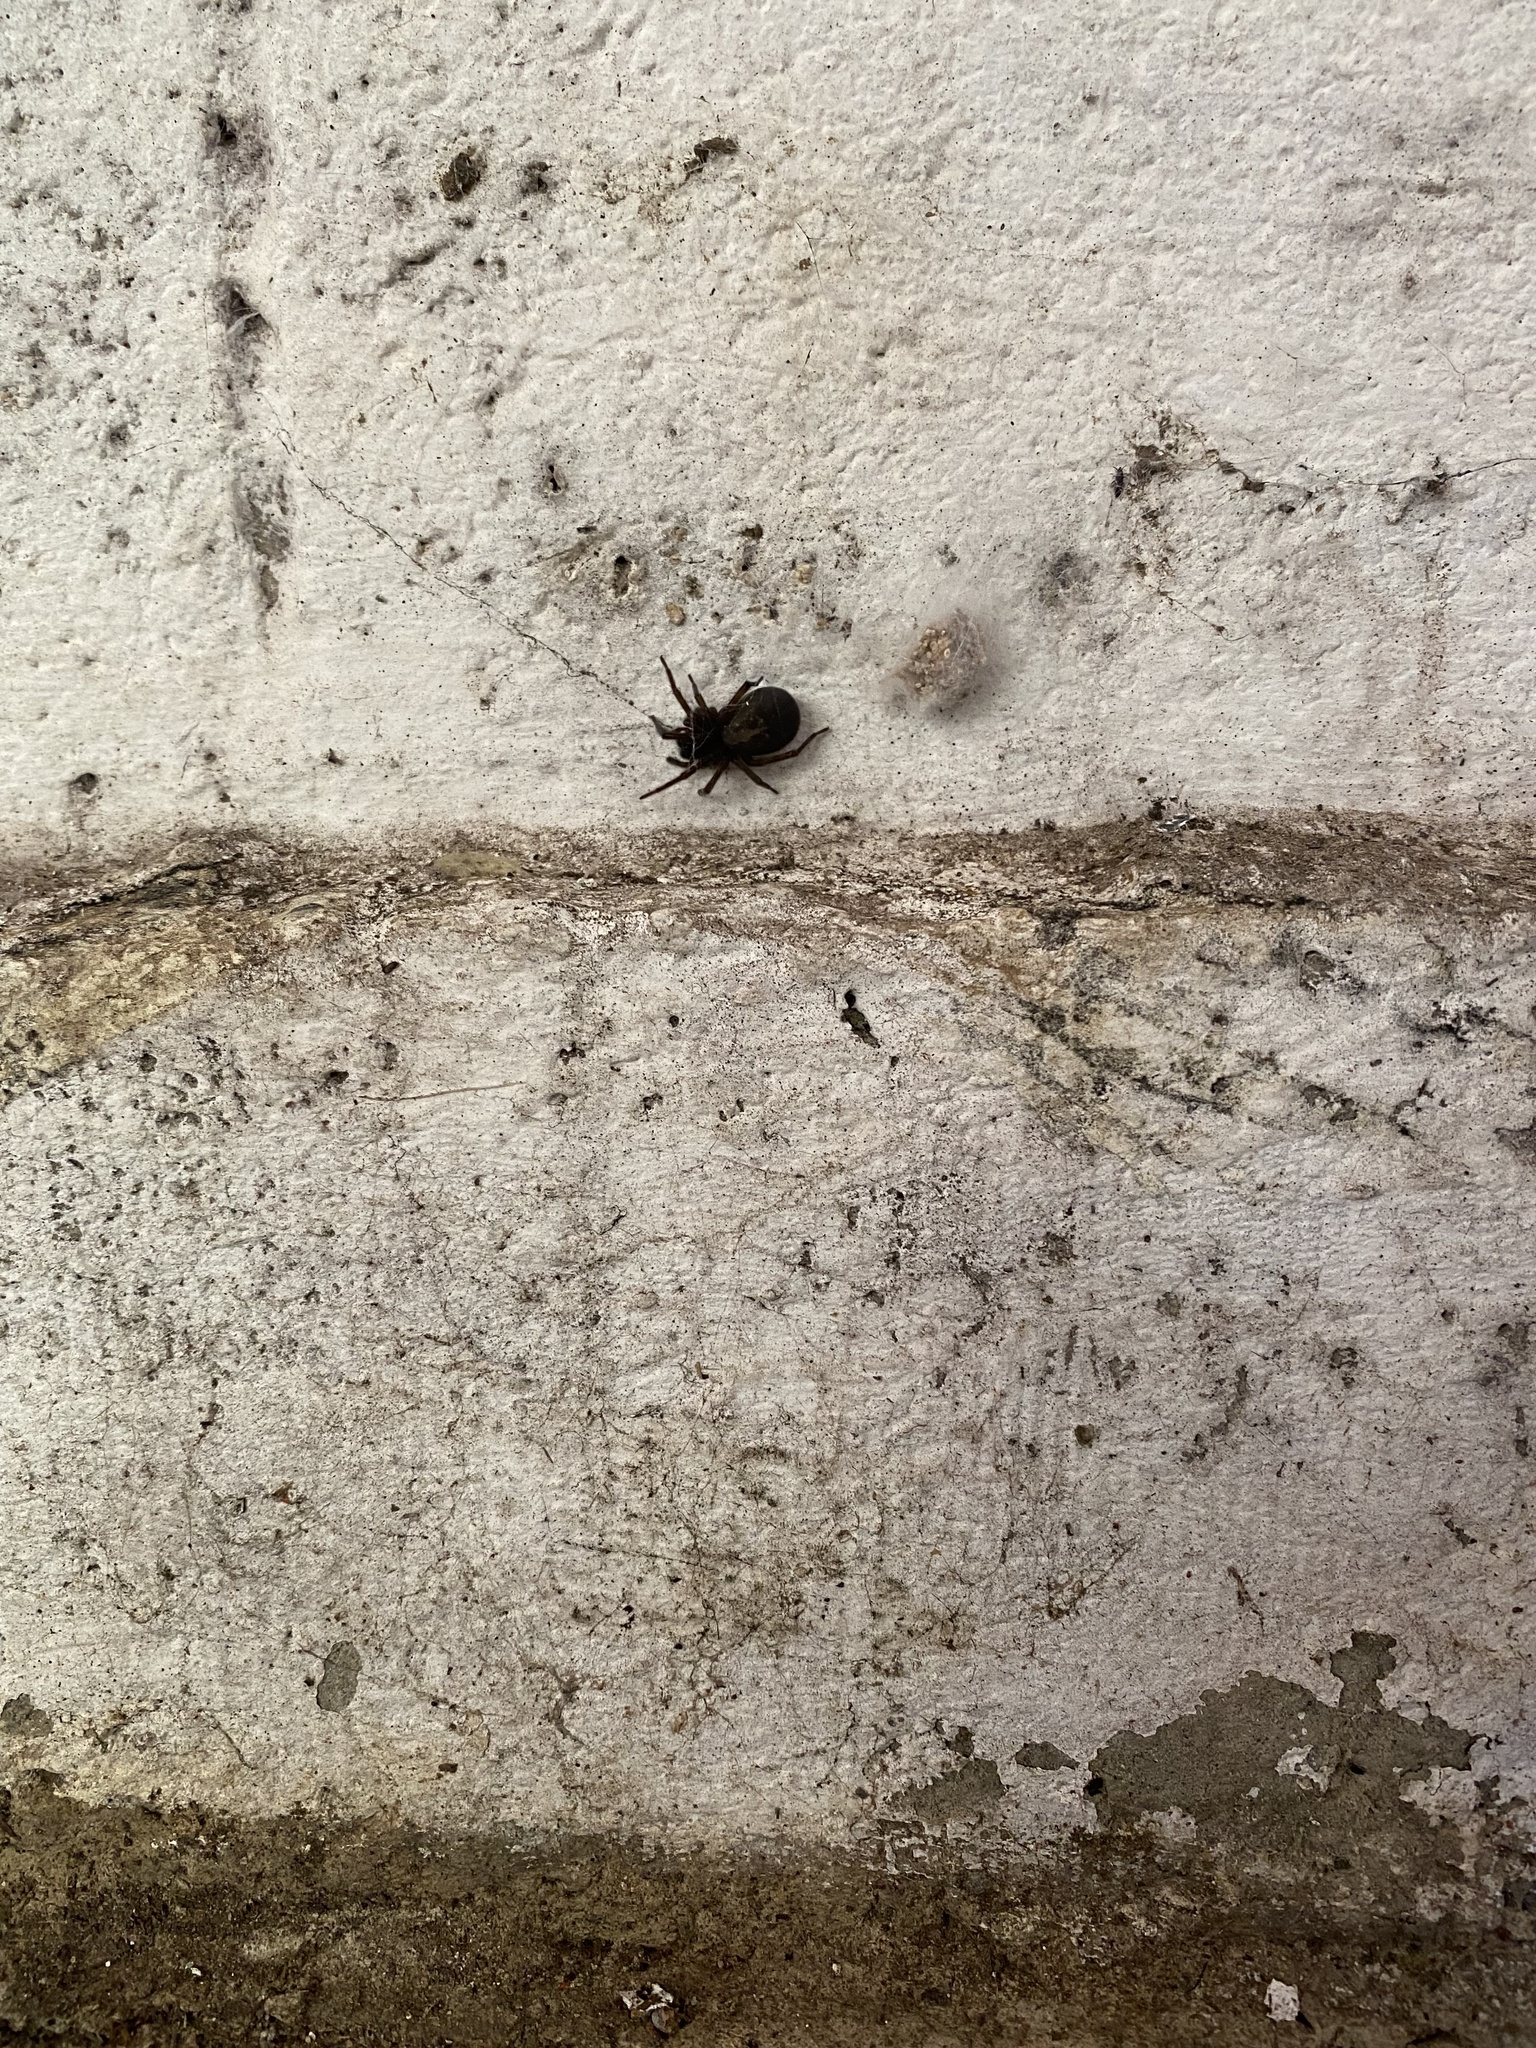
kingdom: Animalia
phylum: Arthropoda
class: Arachnida
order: Araneae
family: Amaurobiidae
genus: Amaurobius
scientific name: Amaurobius ferox
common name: Black laceweaver
